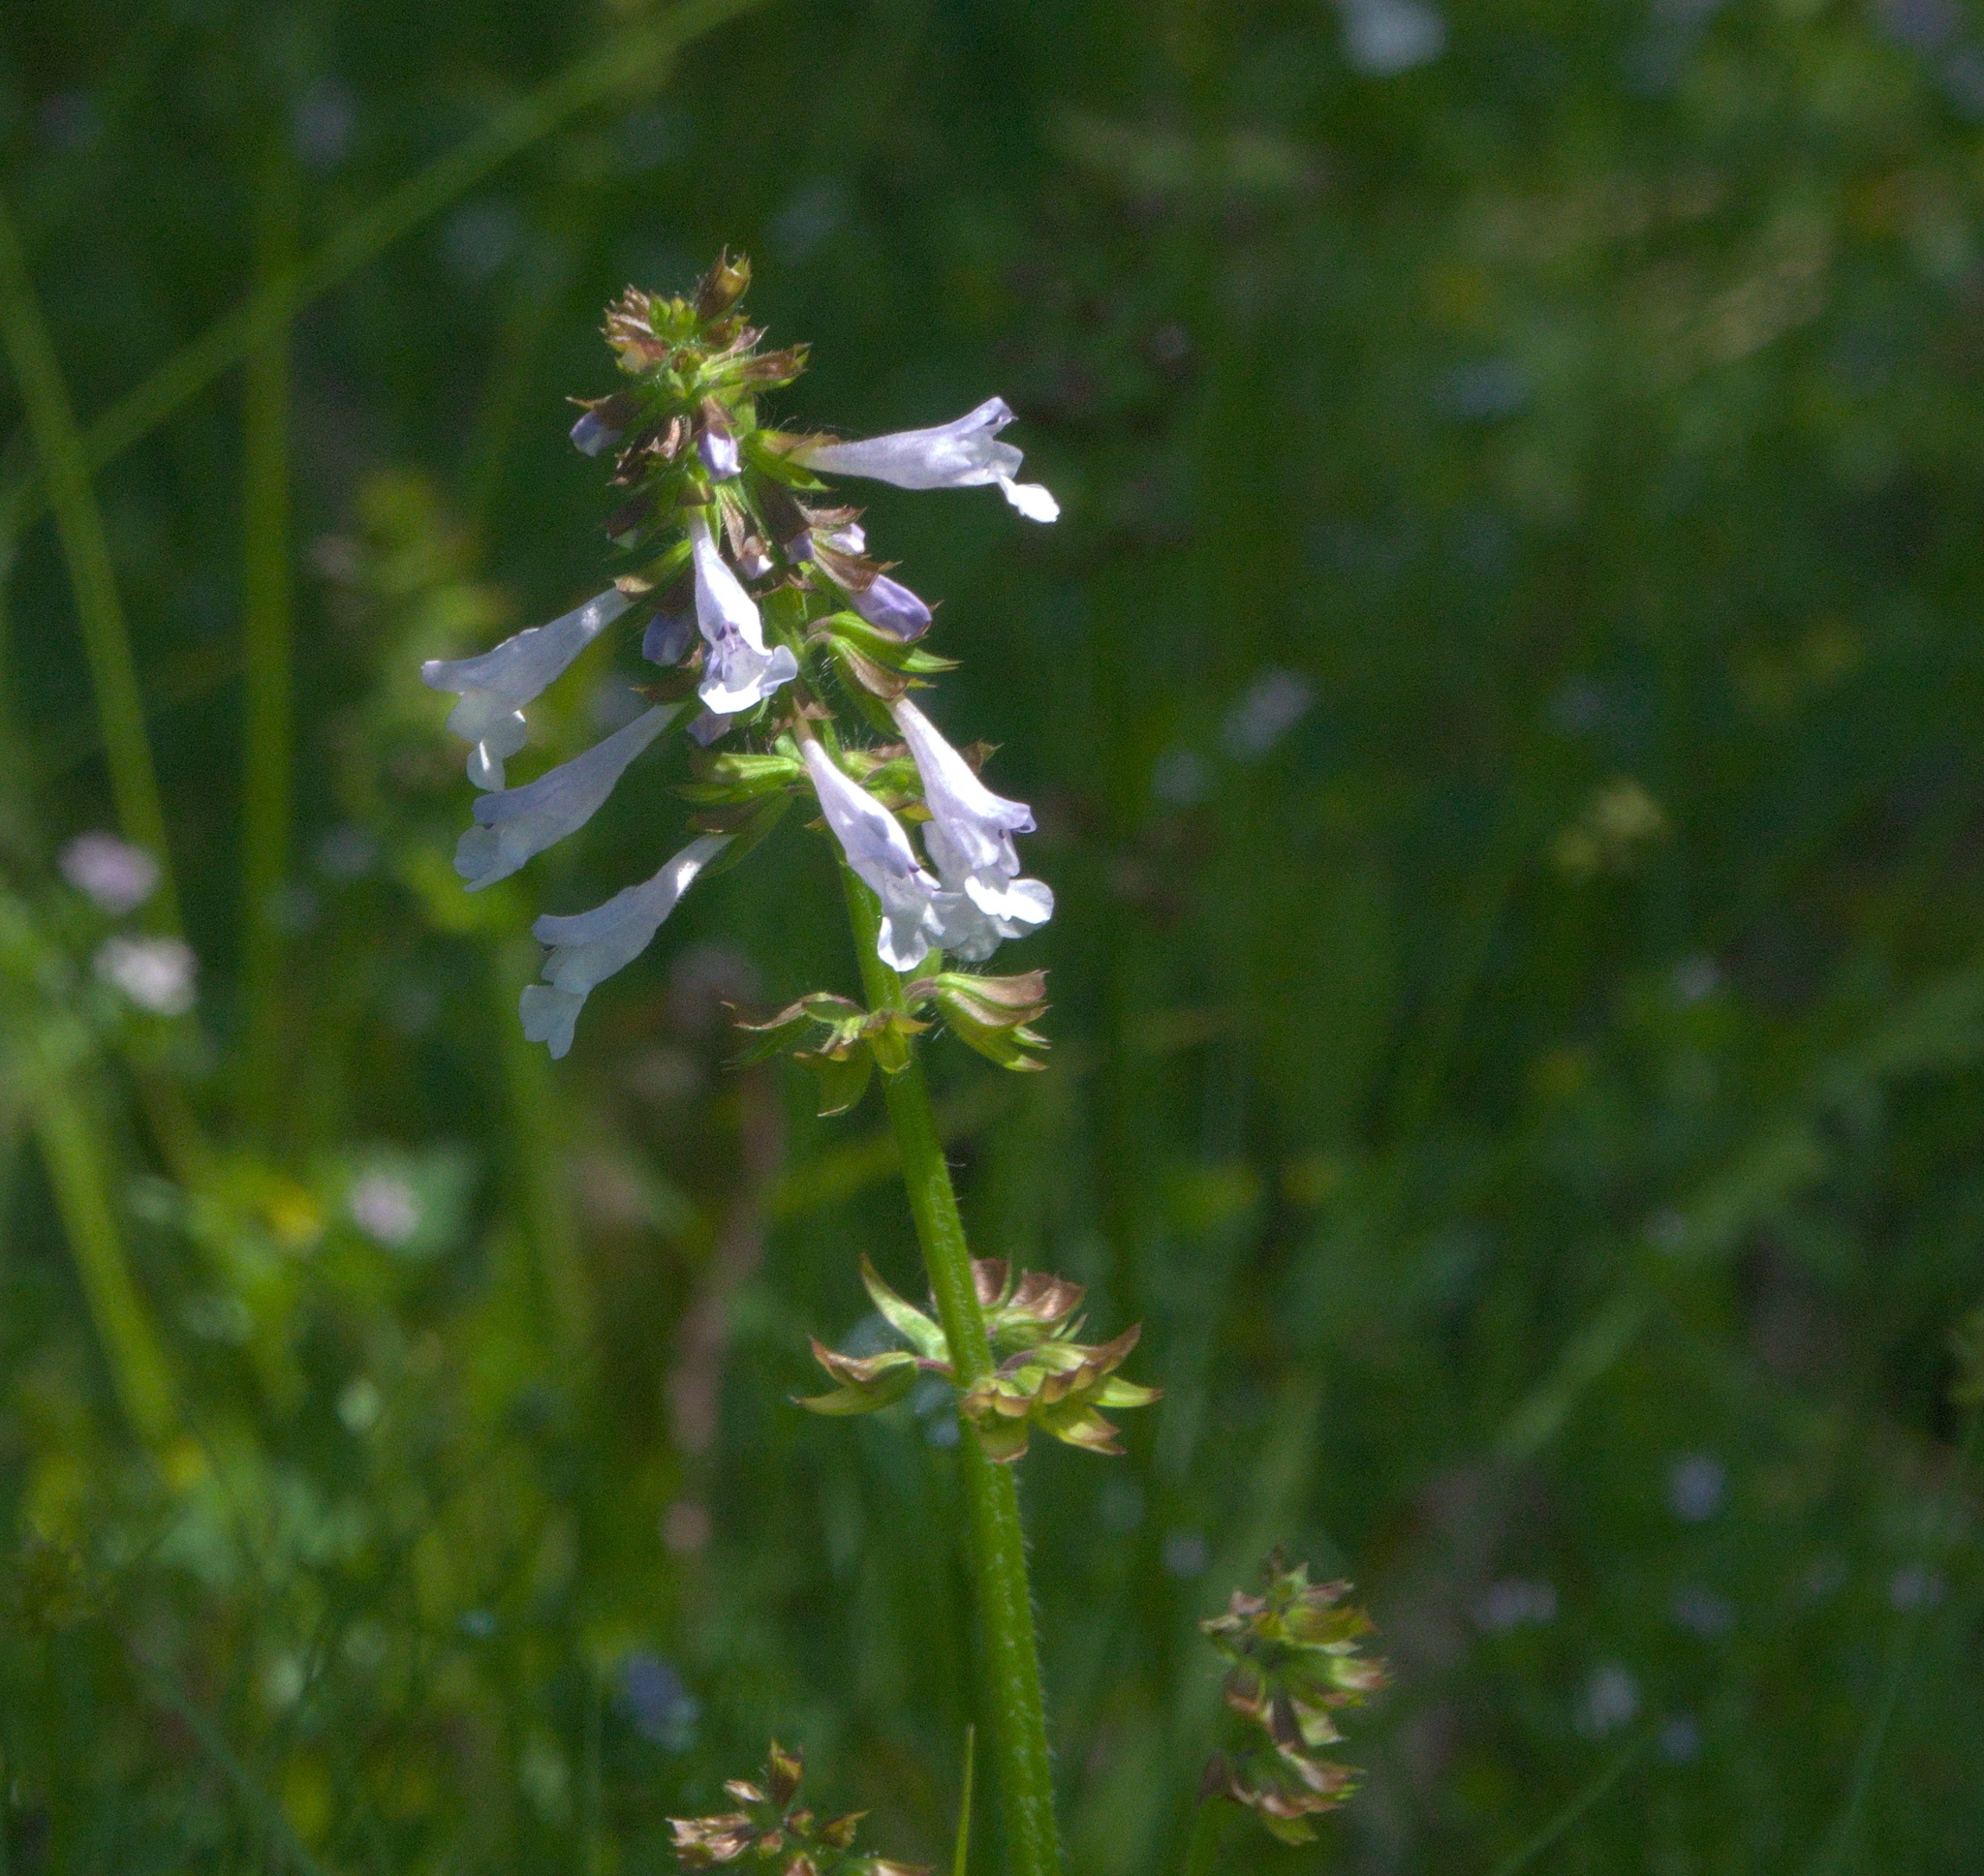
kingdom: Plantae
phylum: Tracheophyta
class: Magnoliopsida
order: Lamiales
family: Lamiaceae
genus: Salvia
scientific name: Salvia lyrata
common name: Cancerweed
